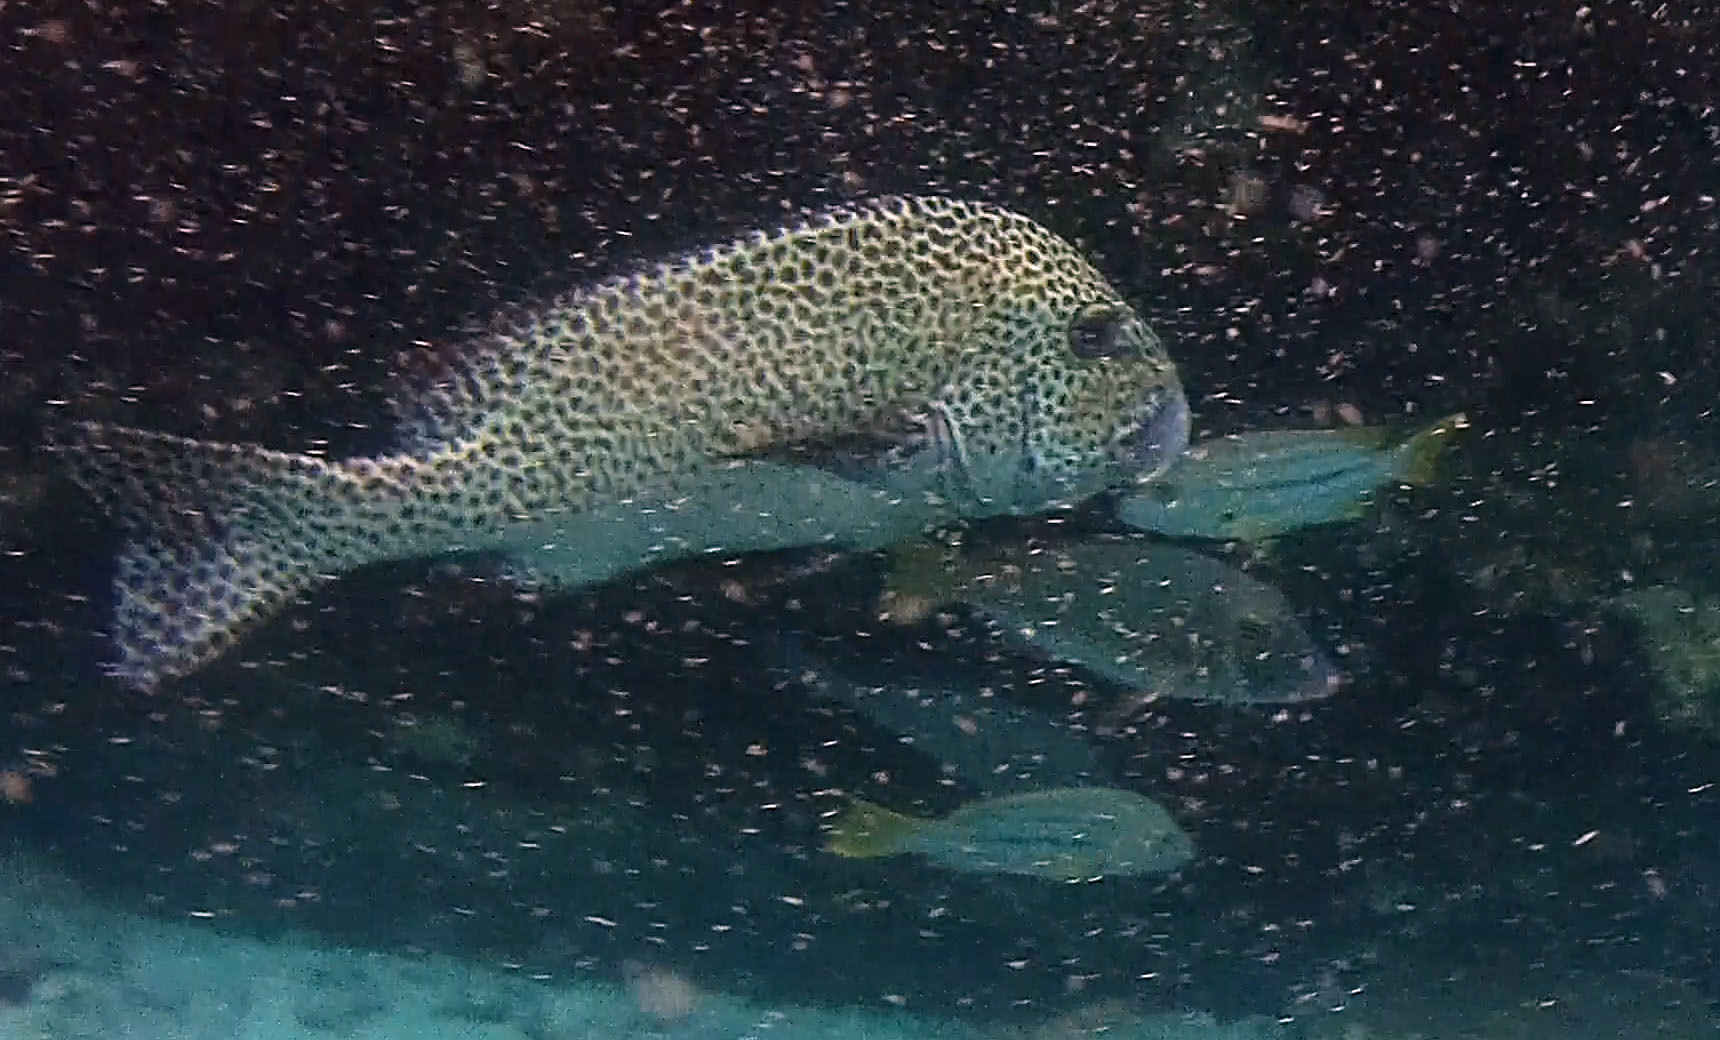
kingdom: Animalia
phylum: Chordata
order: Perciformes
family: Haemulidae
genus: Plectorhinchus
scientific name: Plectorhinchus chaetodonoides
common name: Harlequin sweetlips
